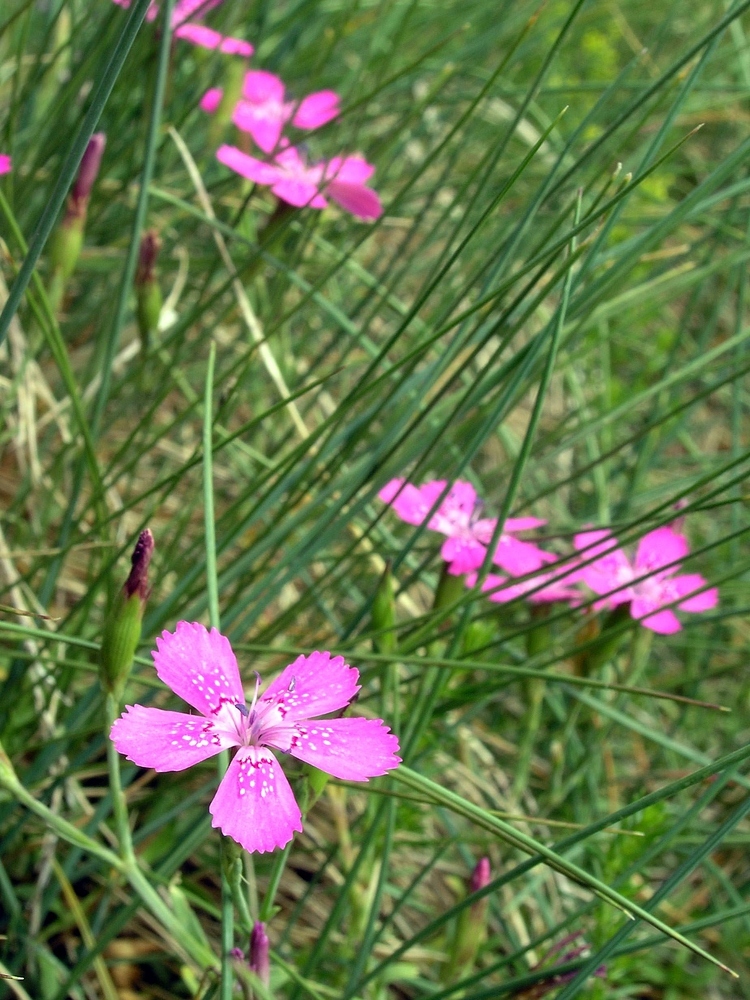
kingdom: Plantae
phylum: Tracheophyta
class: Magnoliopsida
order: Caryophyllales
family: Caryophyllaceae
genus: Dianthus
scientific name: Dianthus deltoides
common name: Maiden pink
